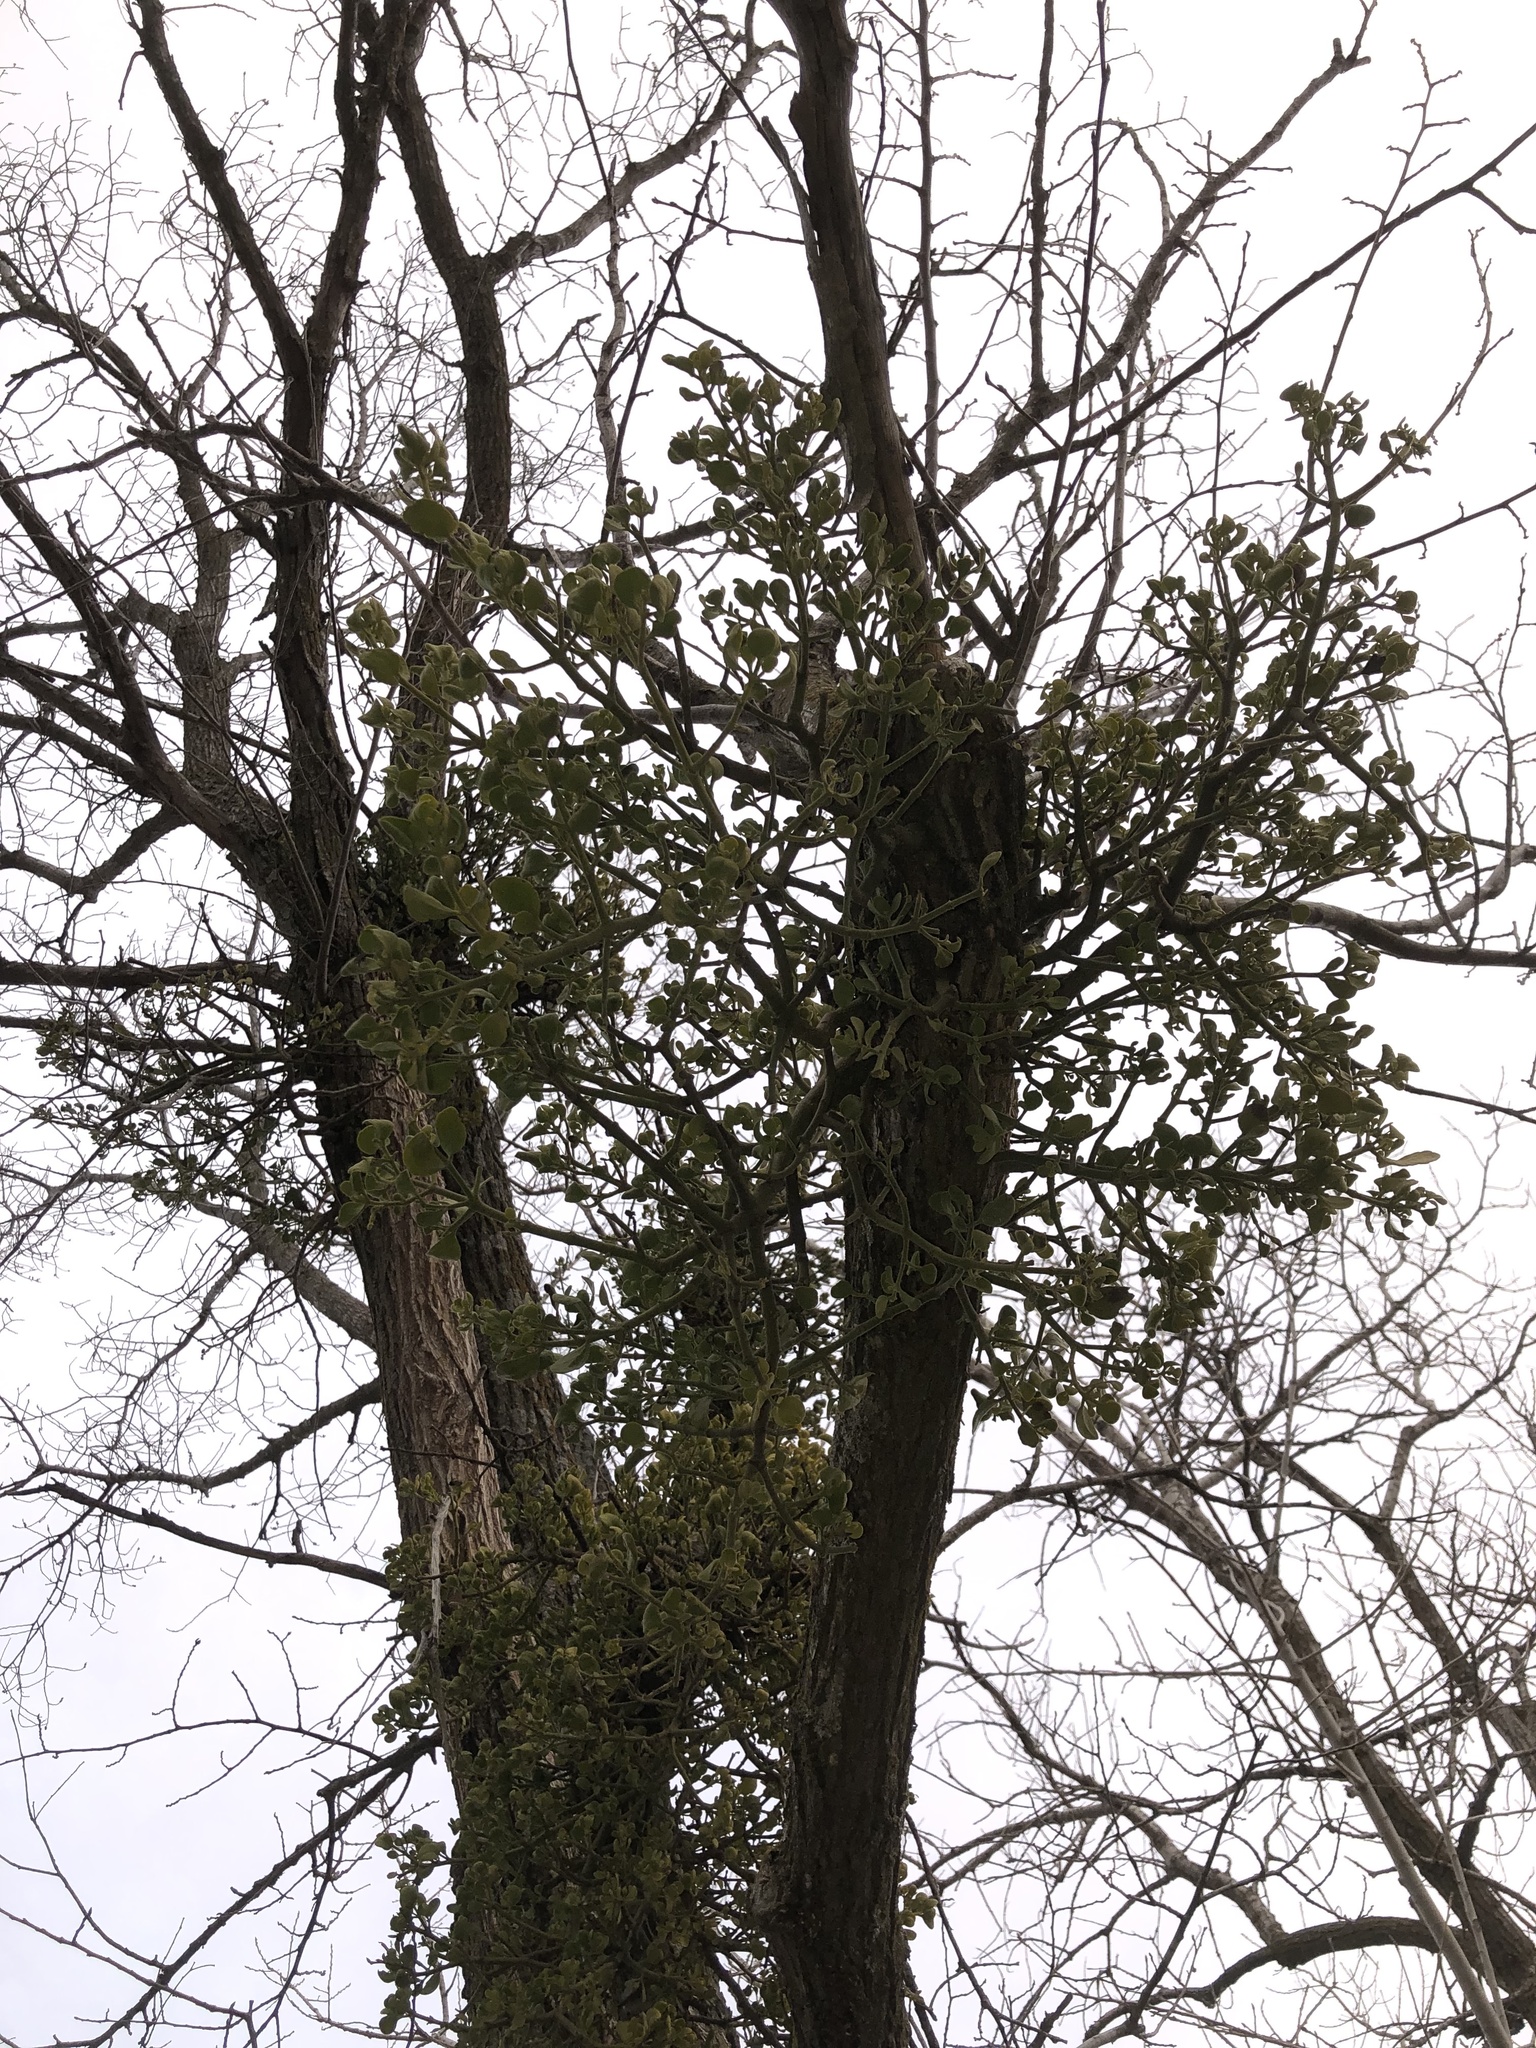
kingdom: Plantae
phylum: Tracheophyta
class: Magnoliopsida
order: Santalales
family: Viscaceae
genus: Phoradendron
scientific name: Phoradendron leucarpum
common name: Pacific mistletoe
